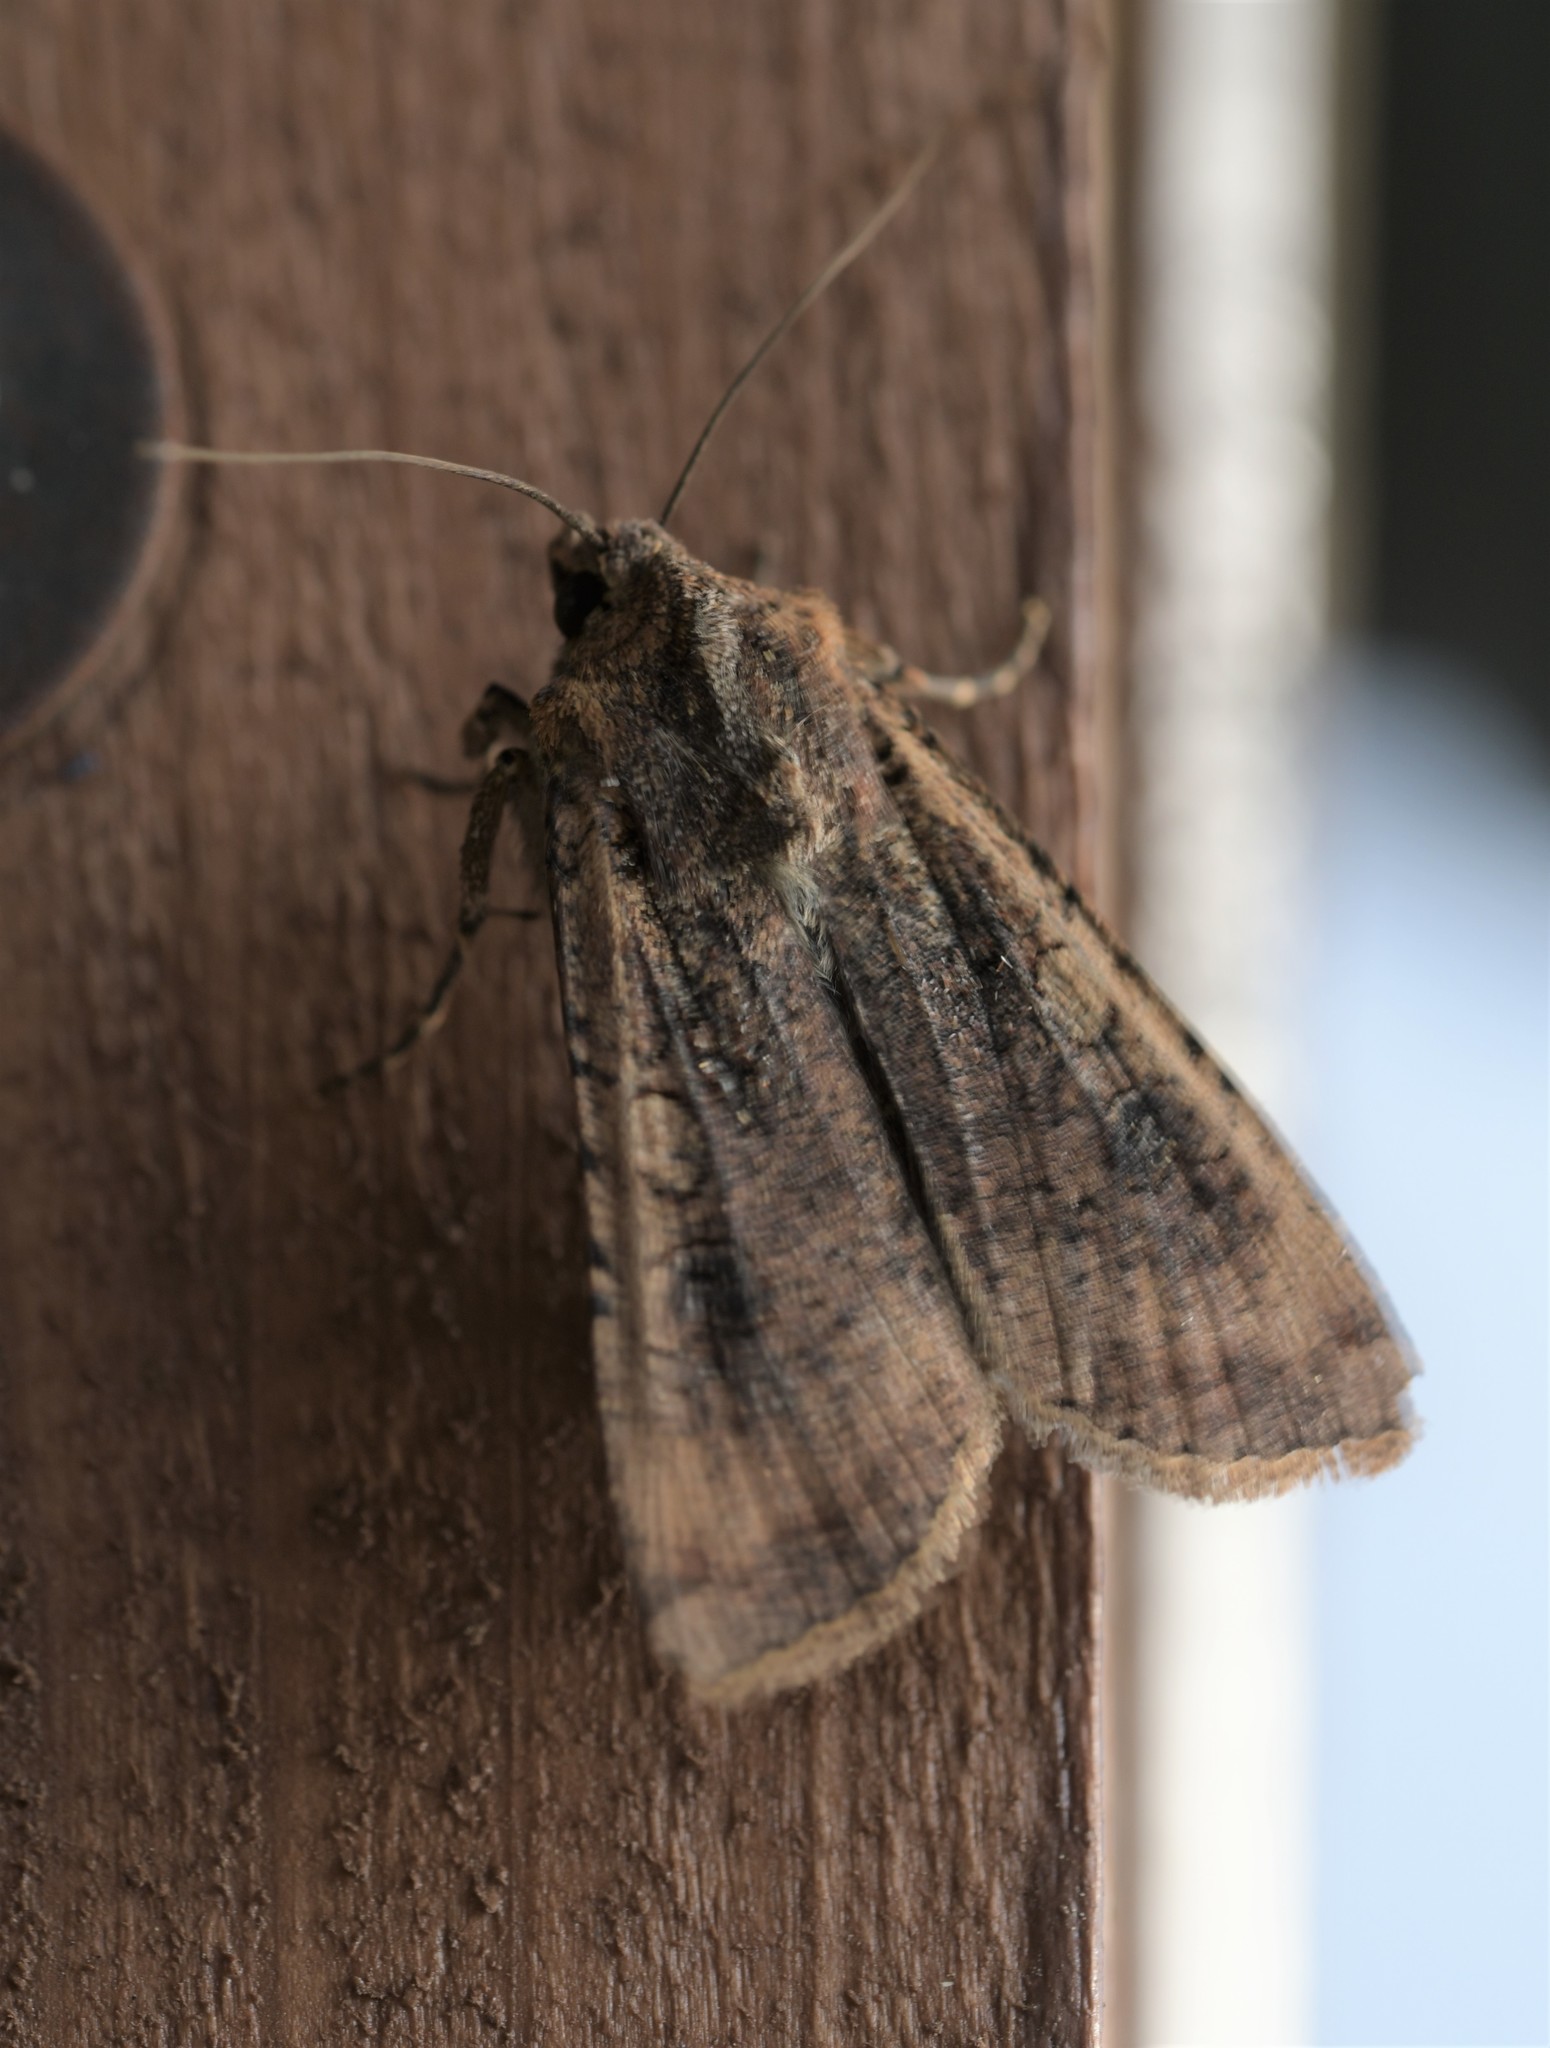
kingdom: Animalia
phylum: Arthropoda
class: Insecta
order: Lepidoptera
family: Noctuidae
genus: Peridroma
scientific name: Peridroma saucia
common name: Pearly underwing
